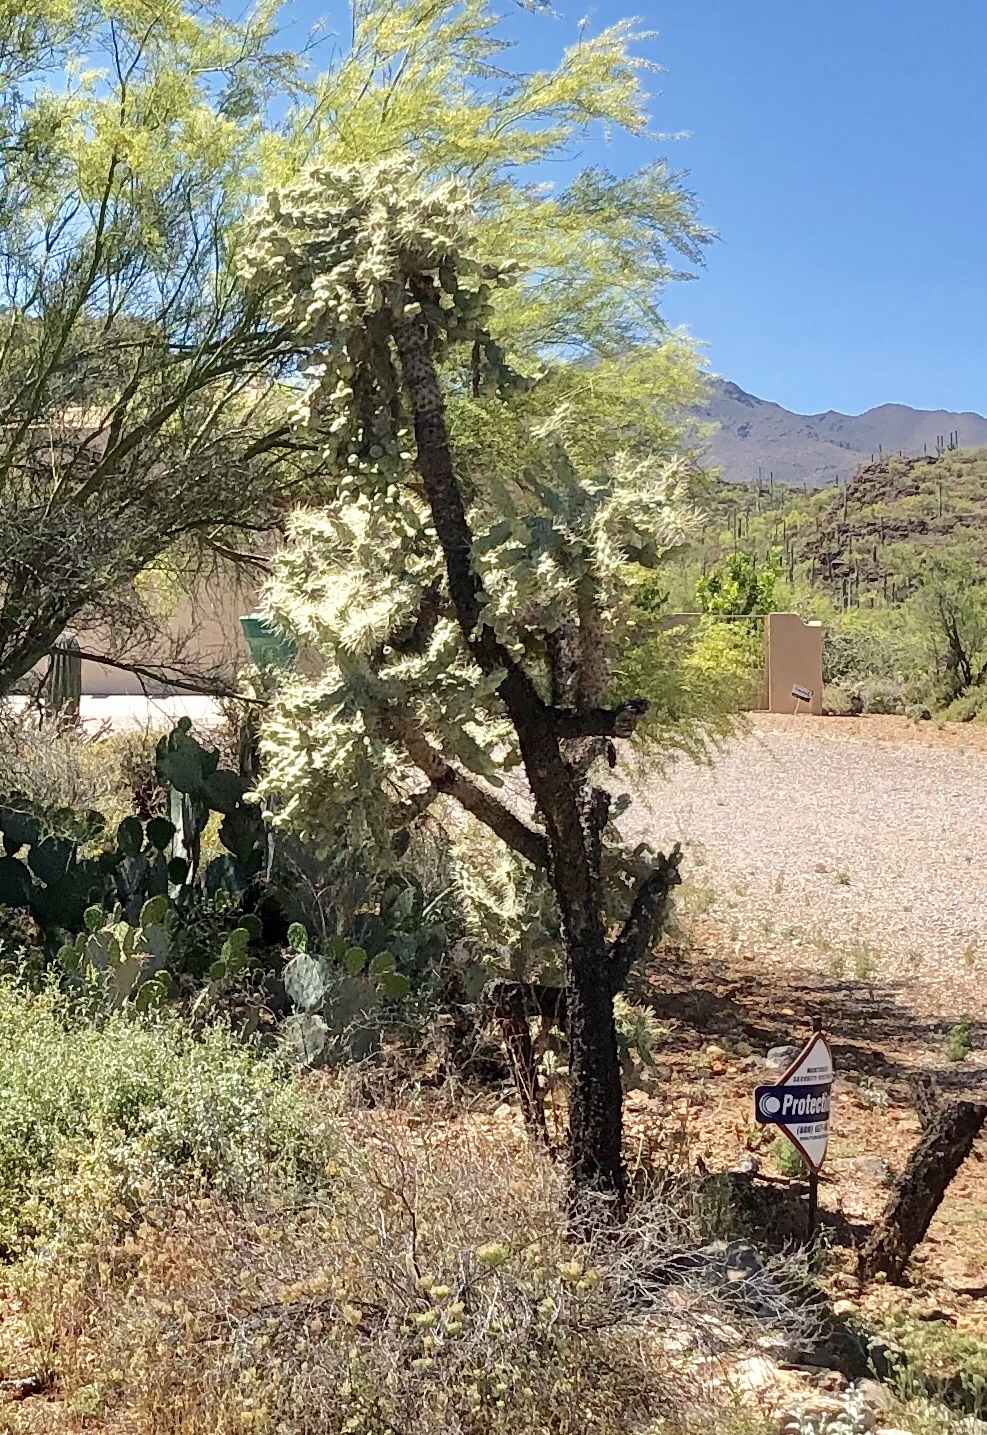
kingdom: Plantae
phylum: Tracheophyta
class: Magnoliopsida
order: Caryophyllales
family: Cactaceae
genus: Cylindropuntia
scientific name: Cylindropuntia fulgida
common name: Jumping cholla
